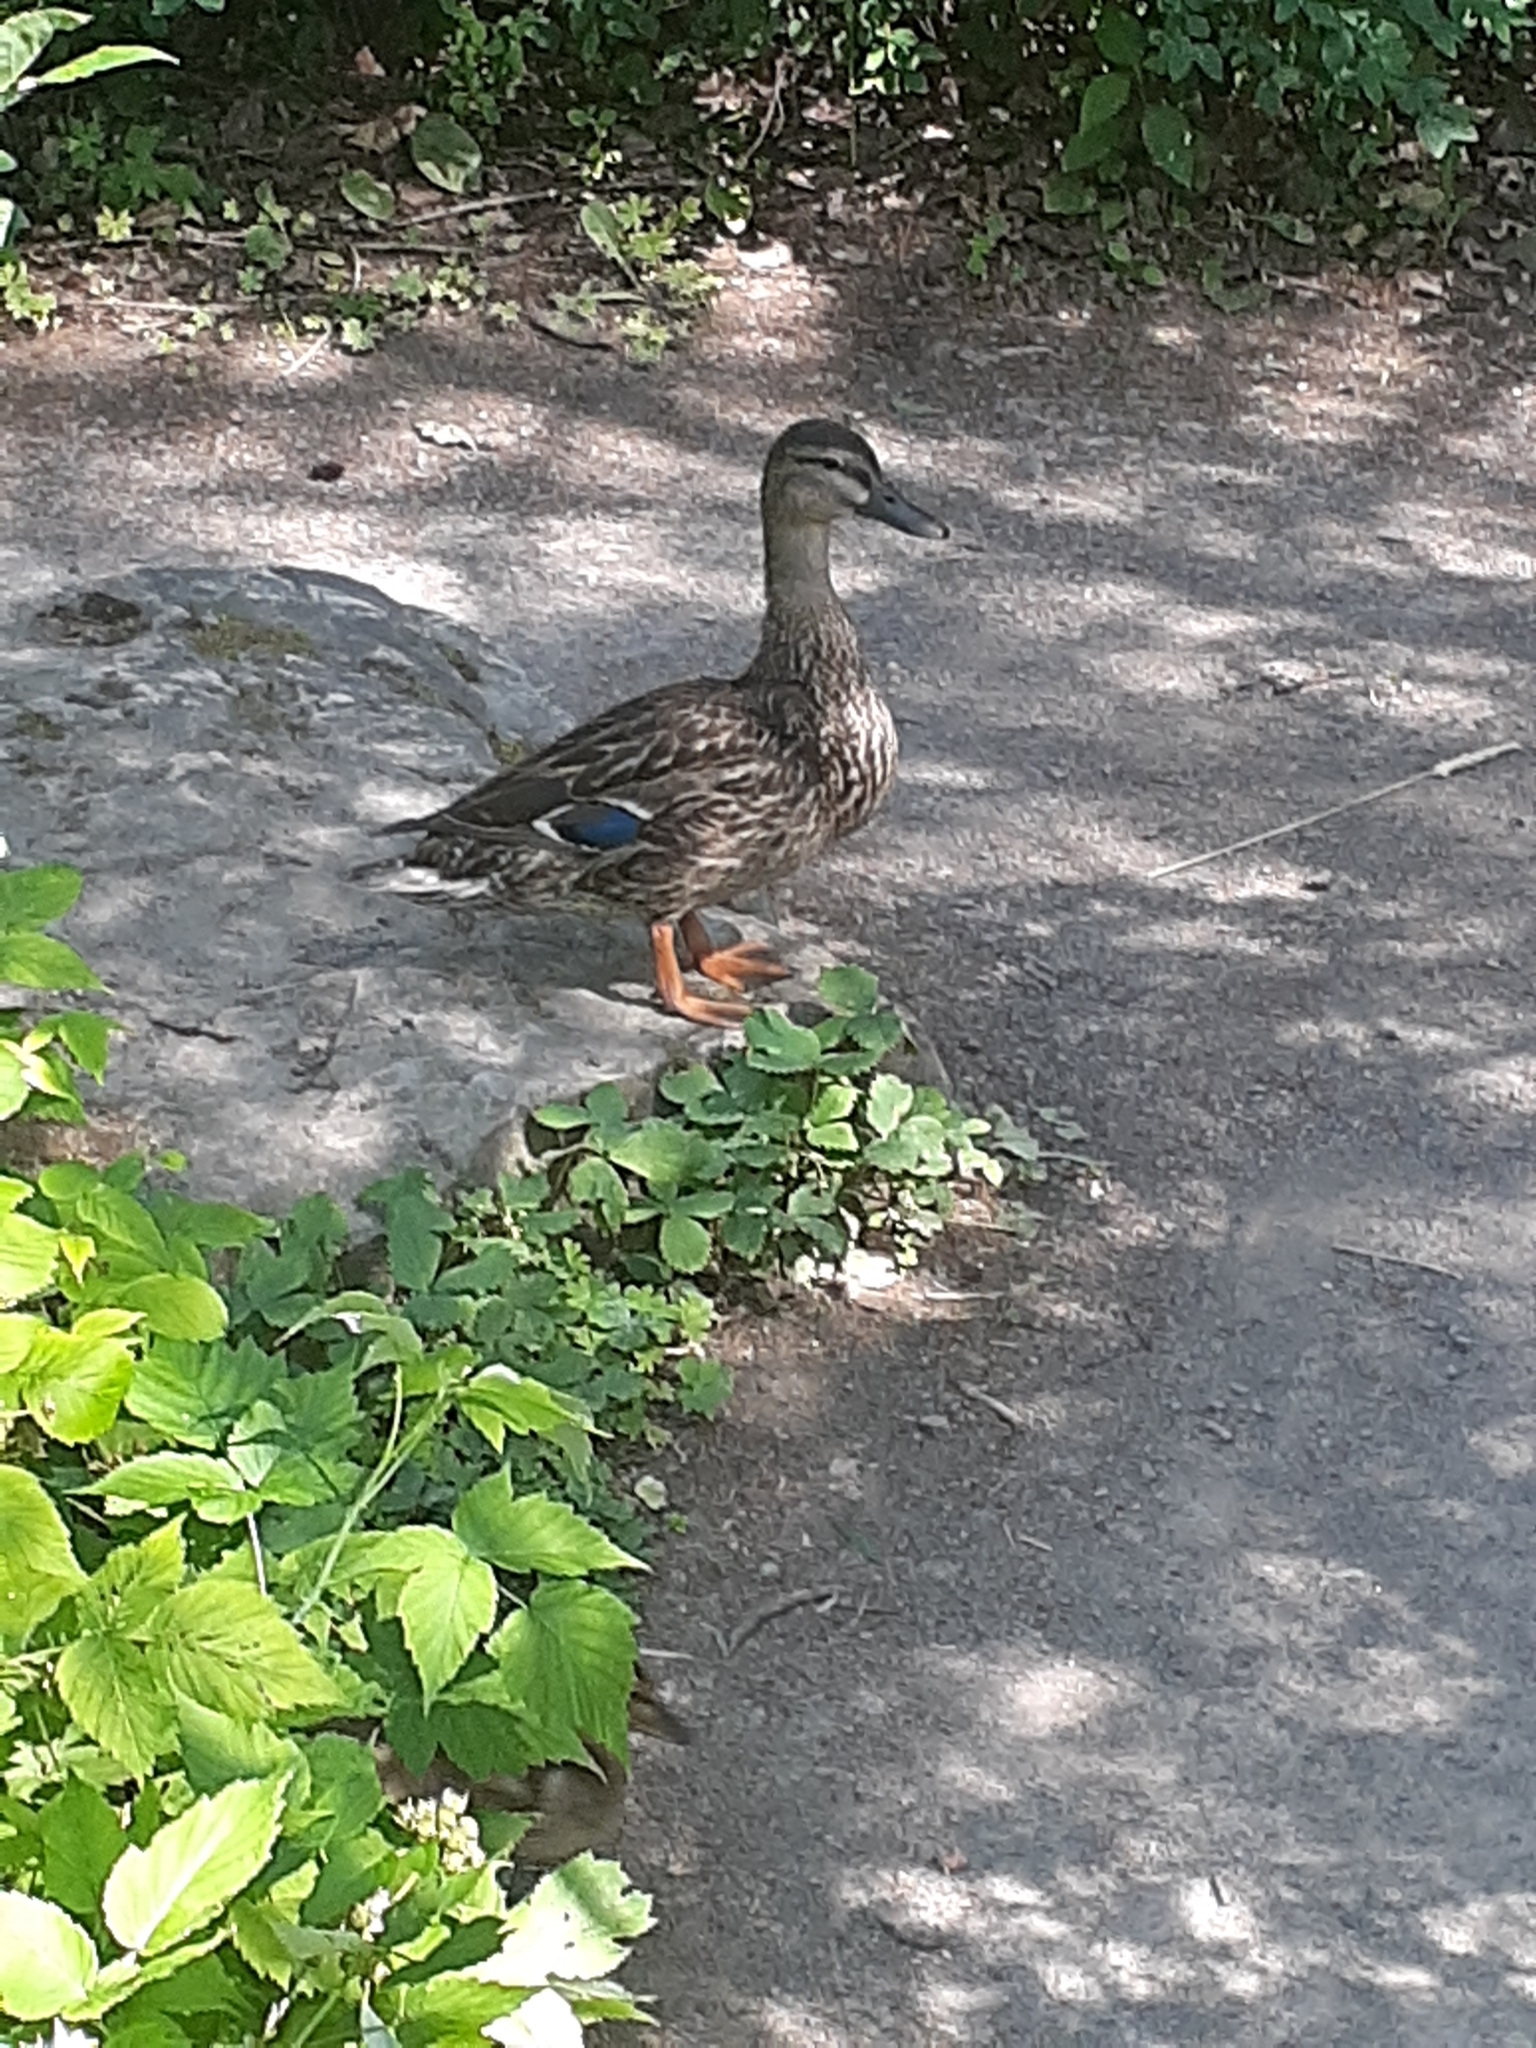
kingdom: Animalia
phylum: Chordata
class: Aves
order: Anseriformes
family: Anatidae
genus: Anas
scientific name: Anas platyrhynchos
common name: Mallard
